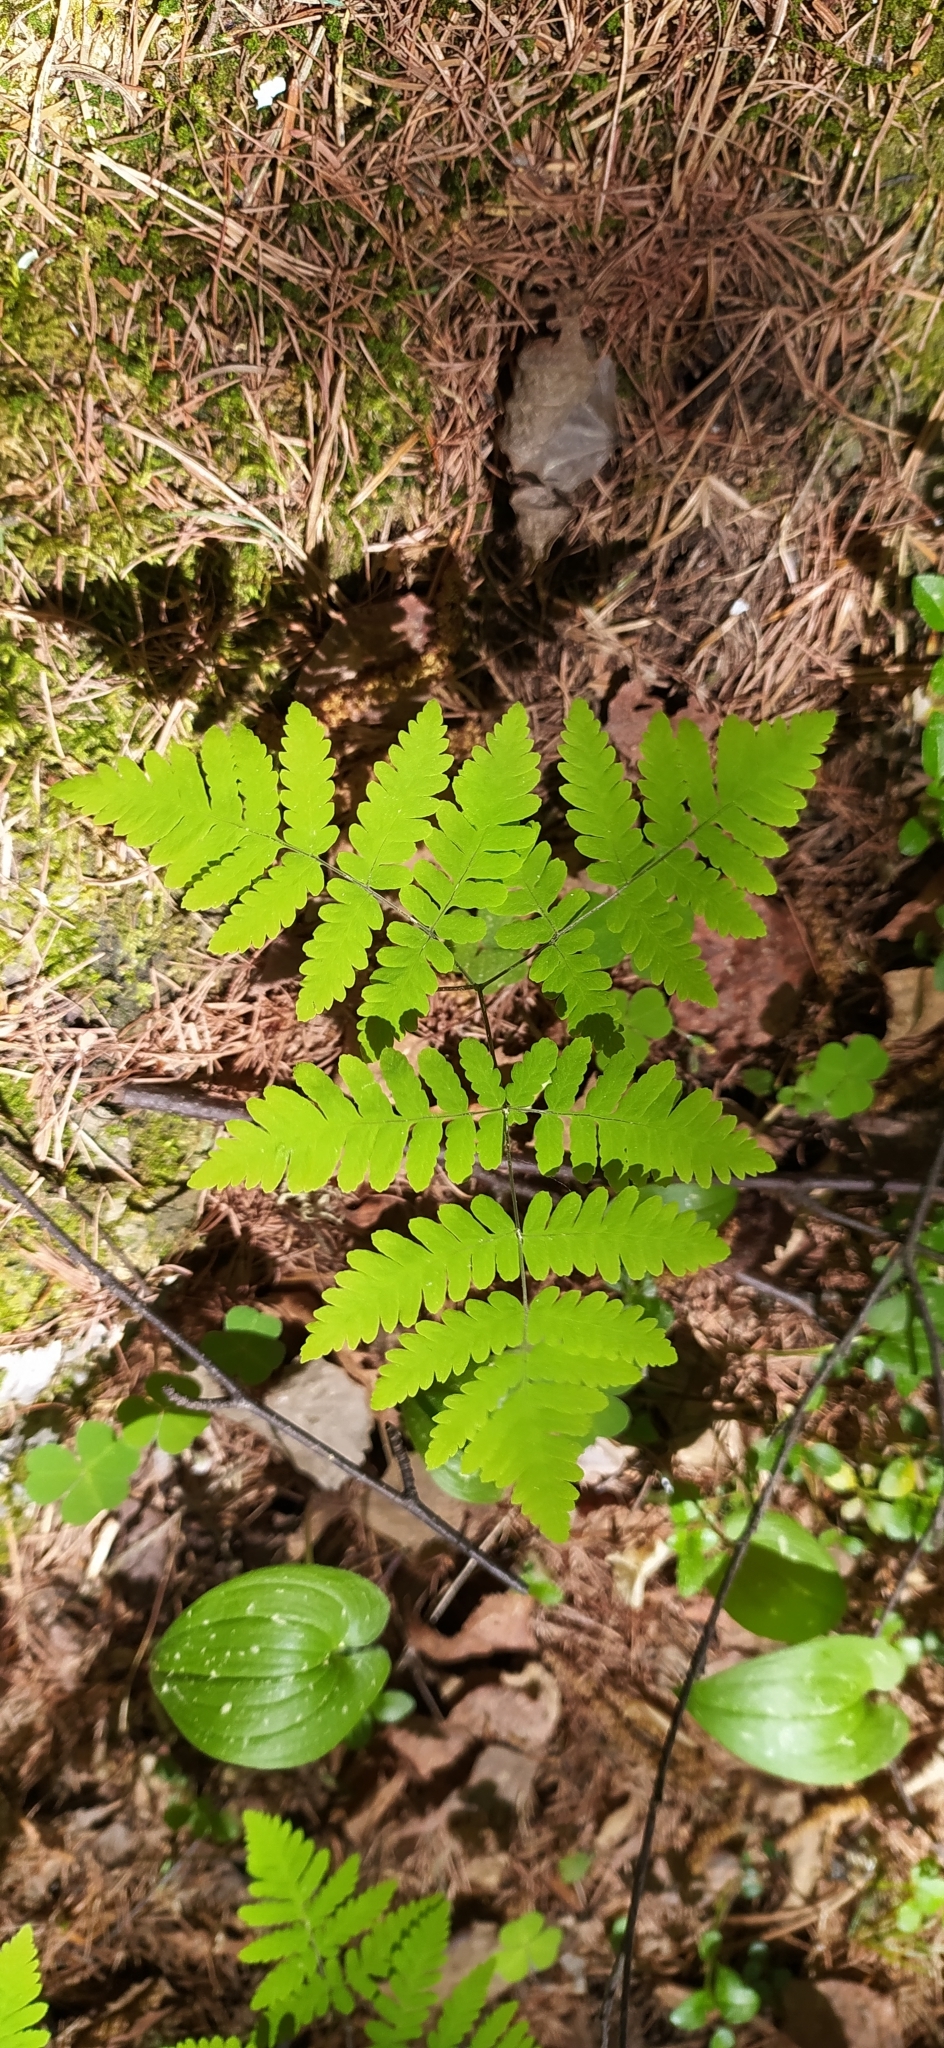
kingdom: Plantae
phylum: Tracheophyta
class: Polypodiopsida
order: Polypodiales
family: Cystopteridaceae
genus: Gymnocarpium
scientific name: Gymnocarpium dryopteris
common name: Oak fern
